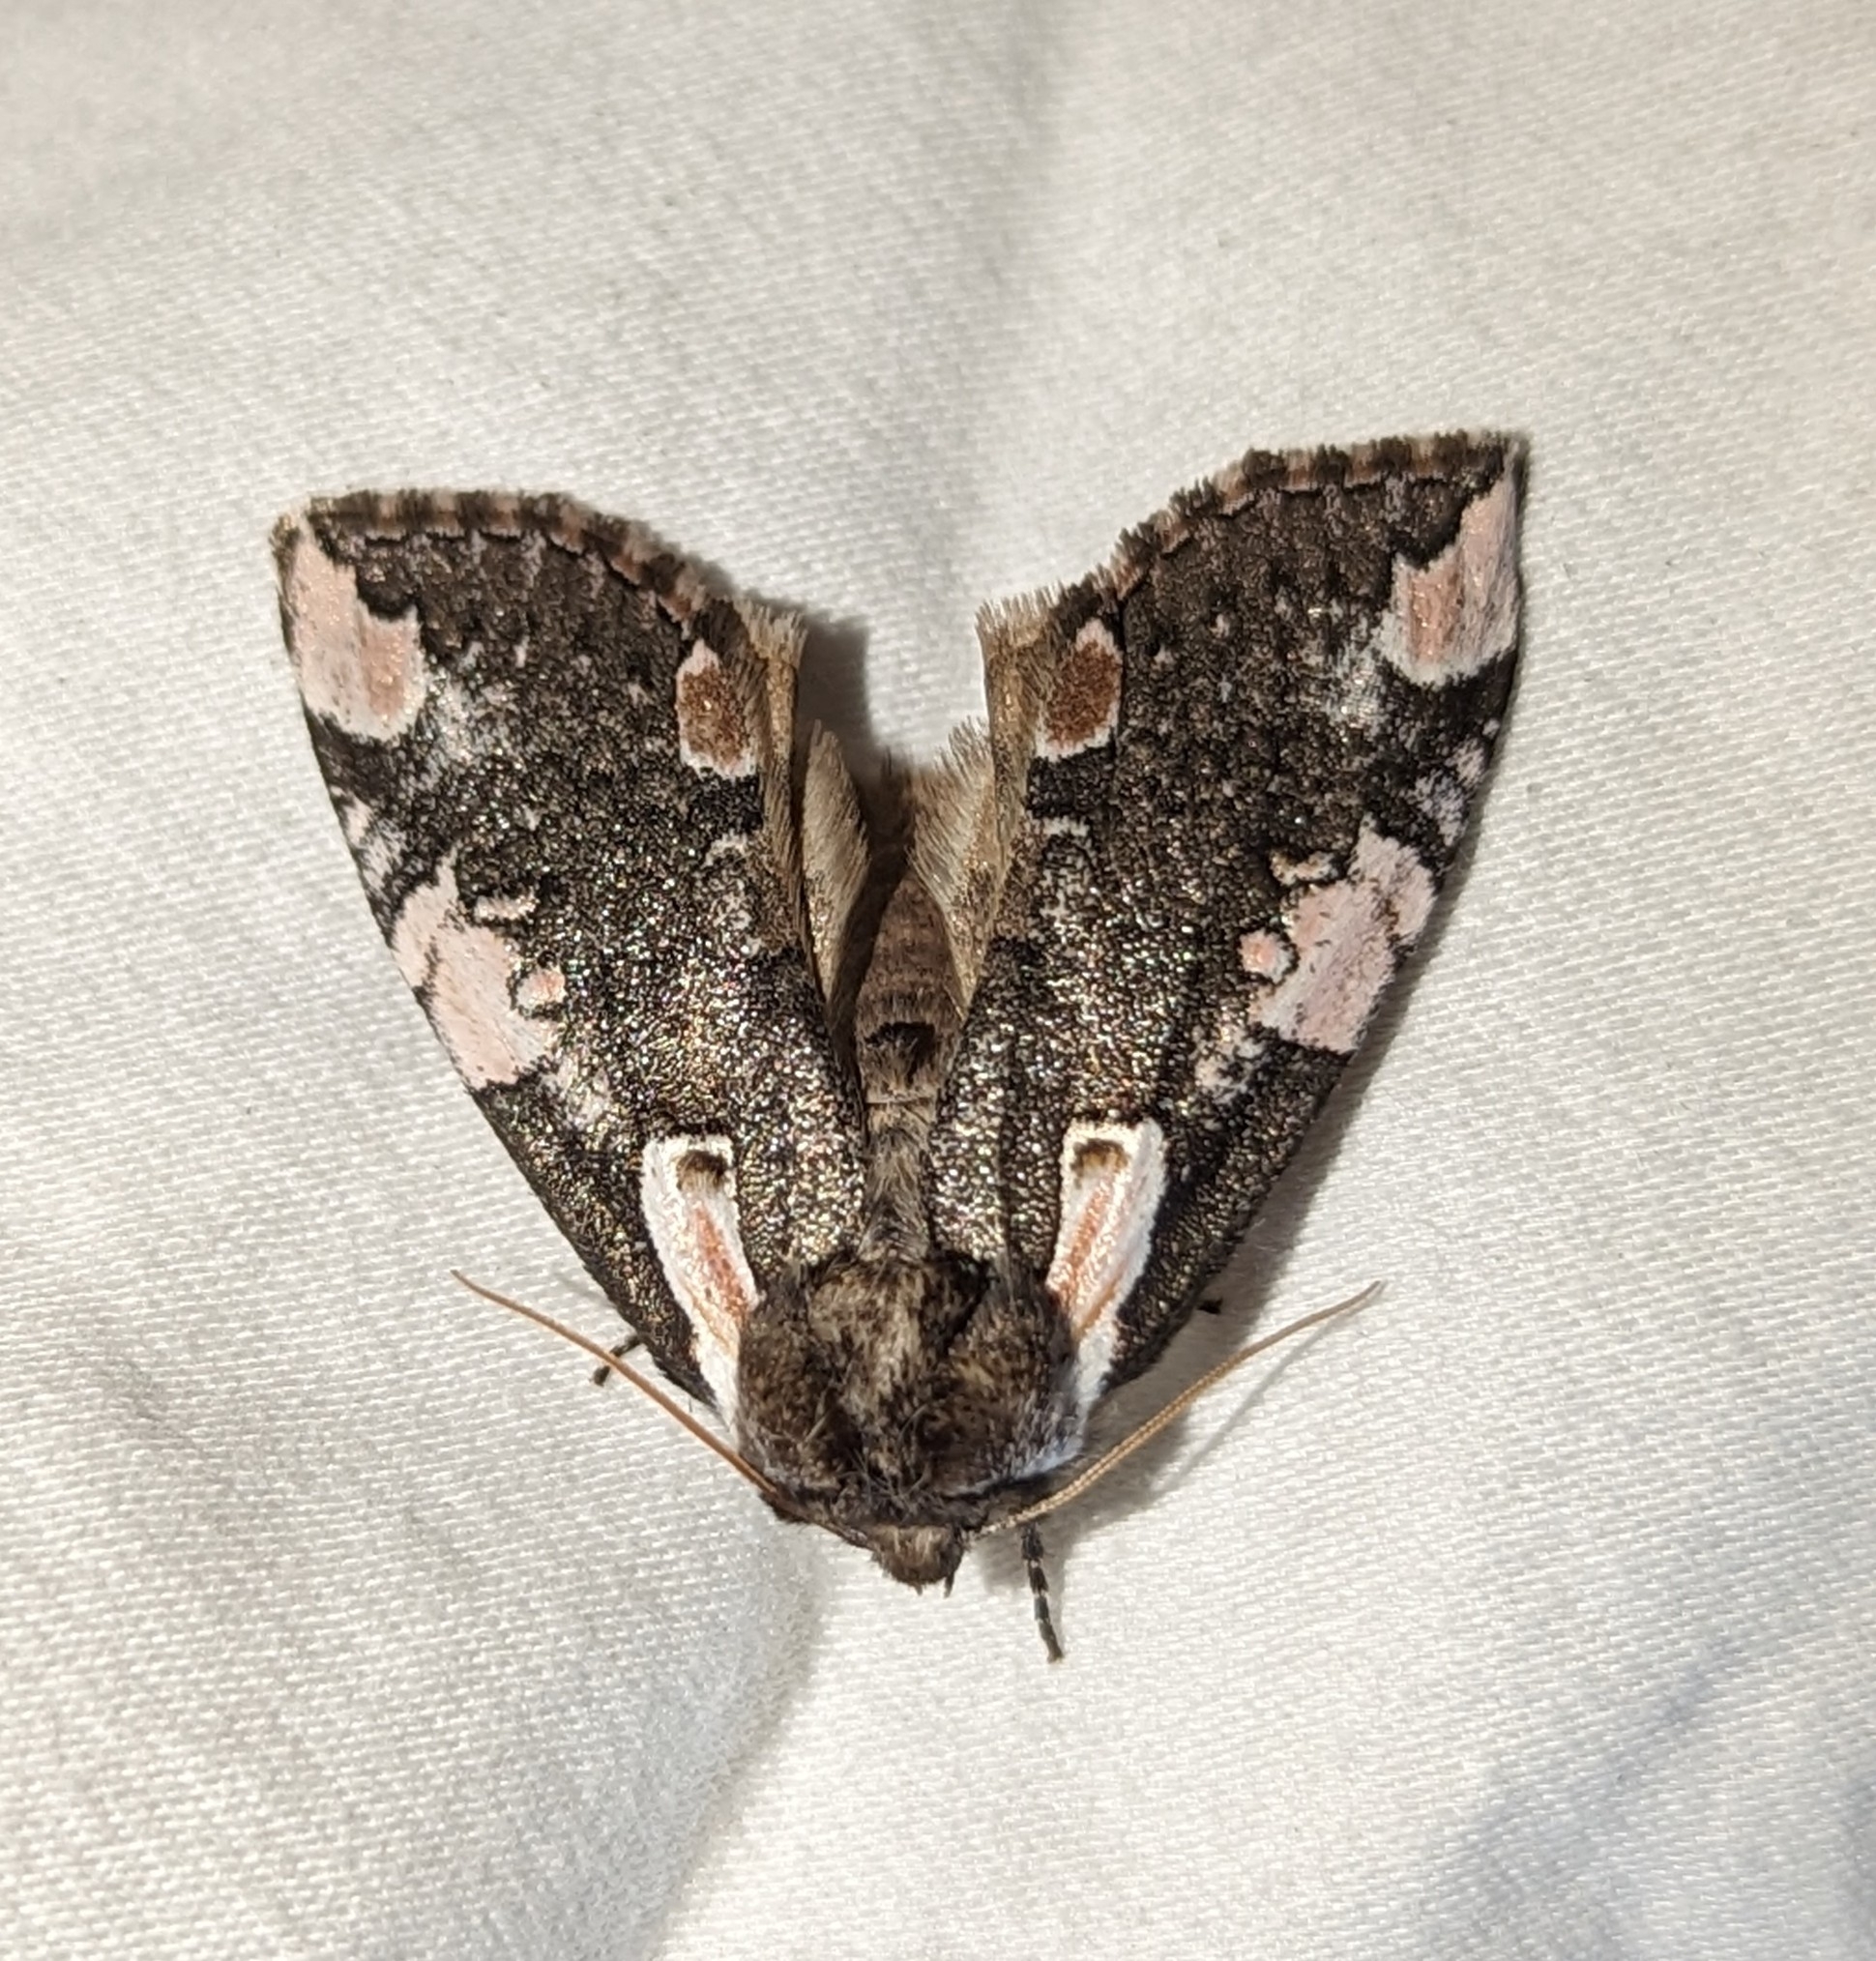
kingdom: Animalia
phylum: Arthropoda
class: Insecta
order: Lepidoptera
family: Drepanidae
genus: Euthyatira
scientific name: Euthyatira pudens
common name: Dogwood thyatirid moth
